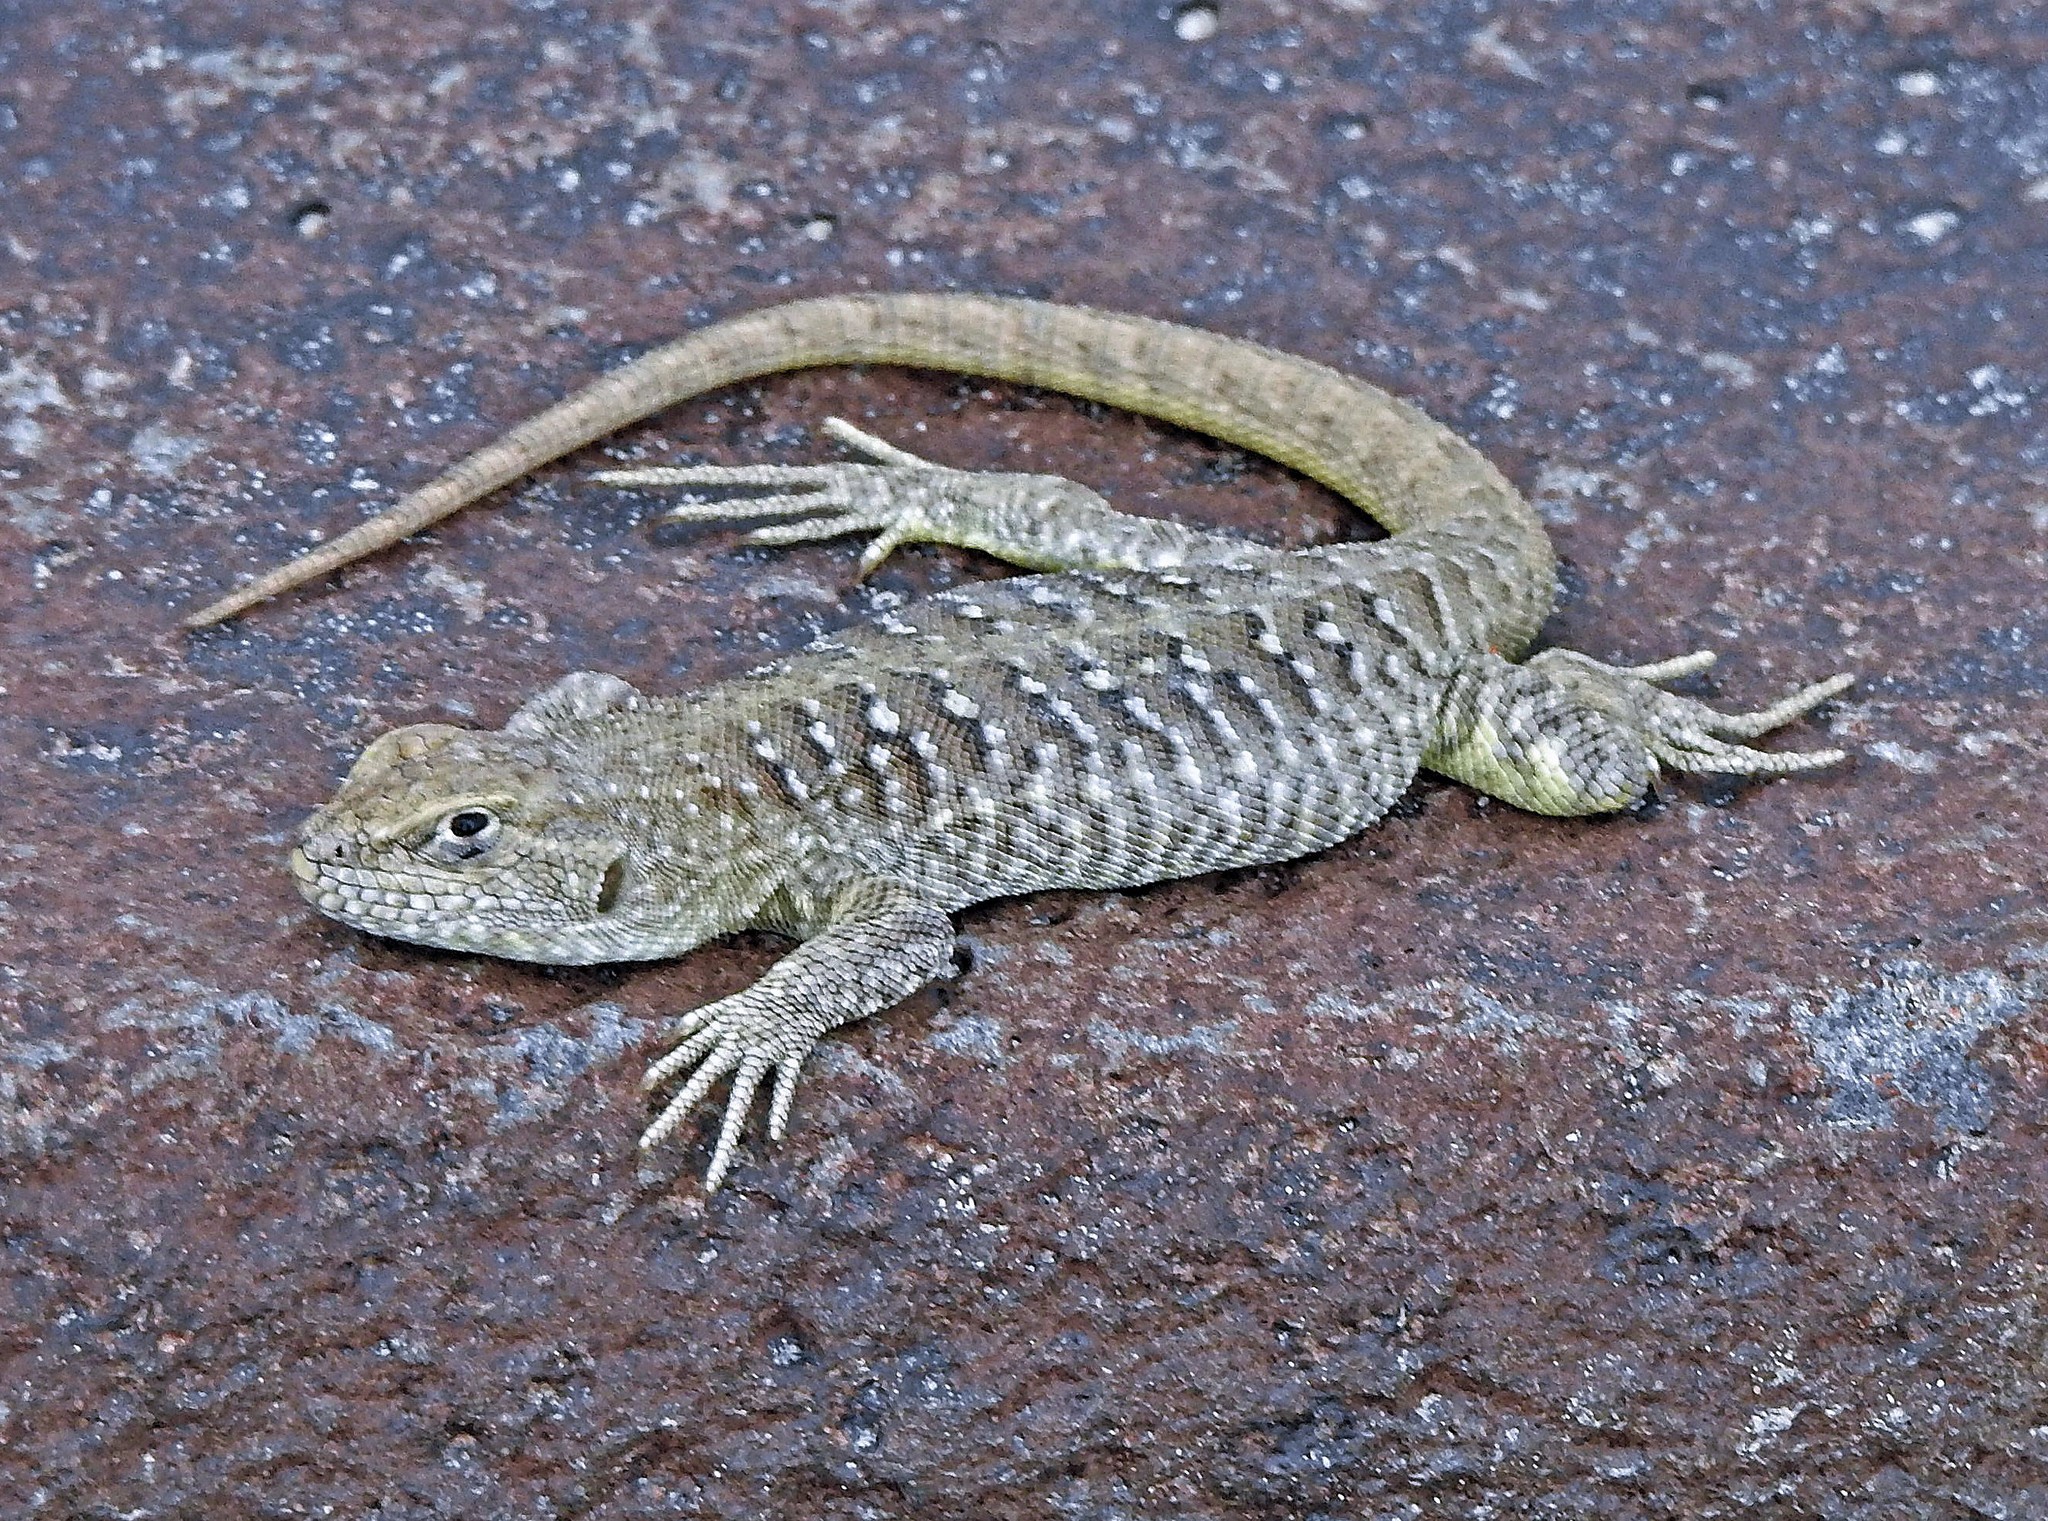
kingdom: Animalia
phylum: Chordata
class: Squamata
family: Liolaemidae
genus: Liolaemus
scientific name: Liolaemus kingii
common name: King's tree iguana
